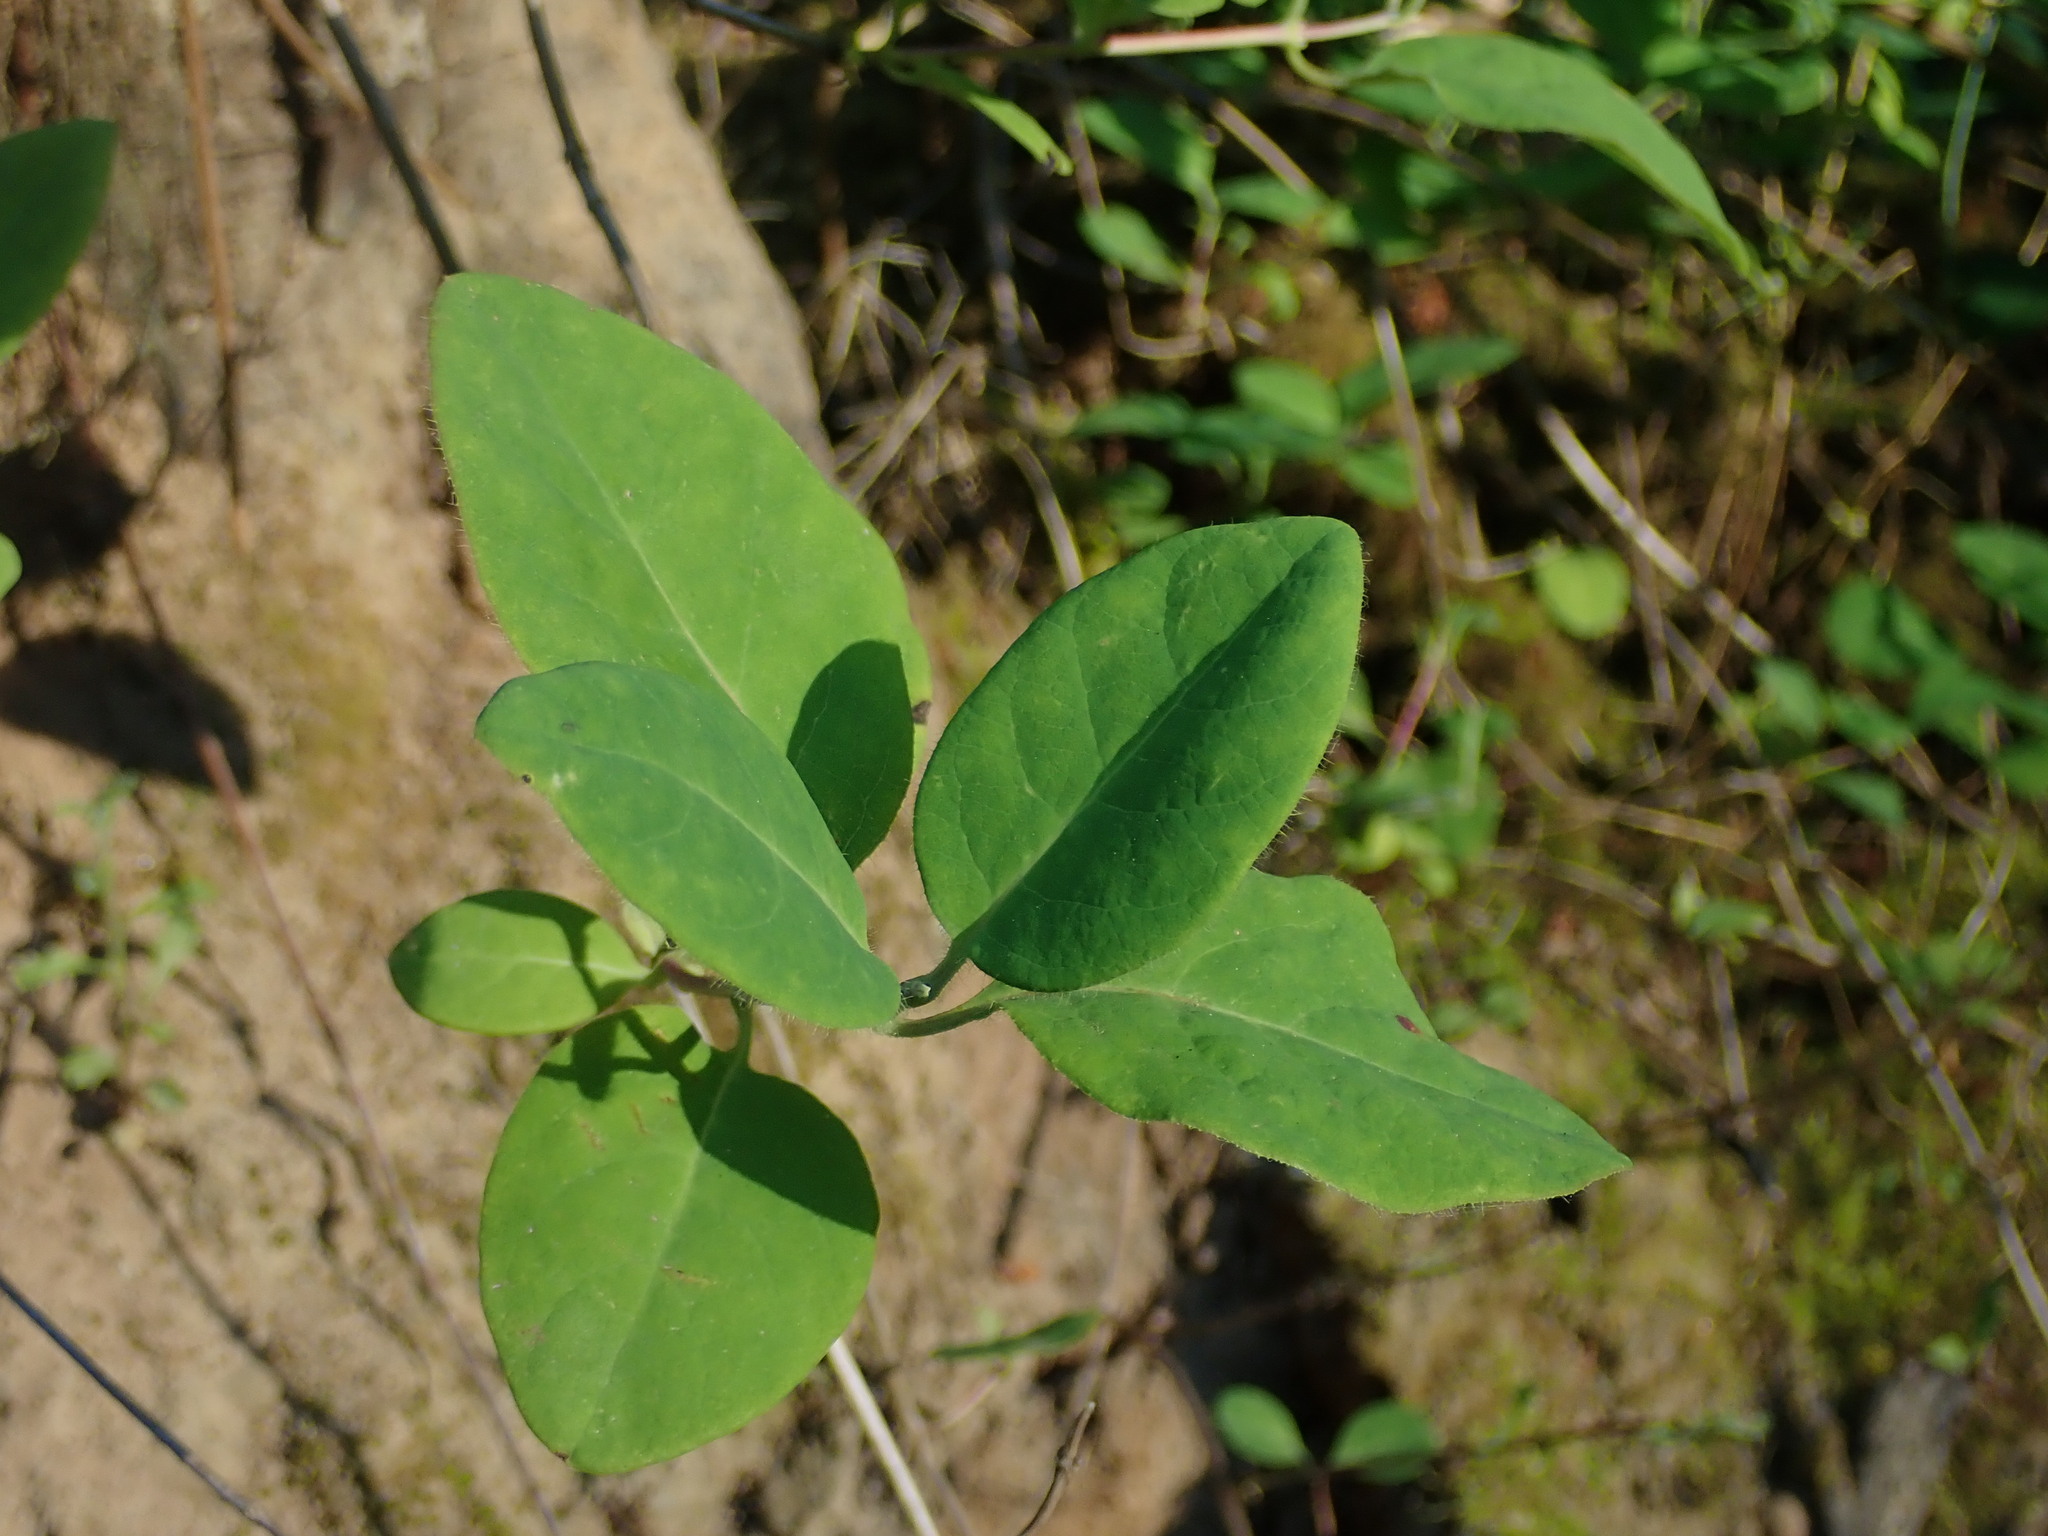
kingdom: Plantae
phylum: Tracheophyta
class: Magnoliopsida
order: Dipsacales
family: Caprifoliaceae
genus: Lonicera
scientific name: Lonicera ciliosa
